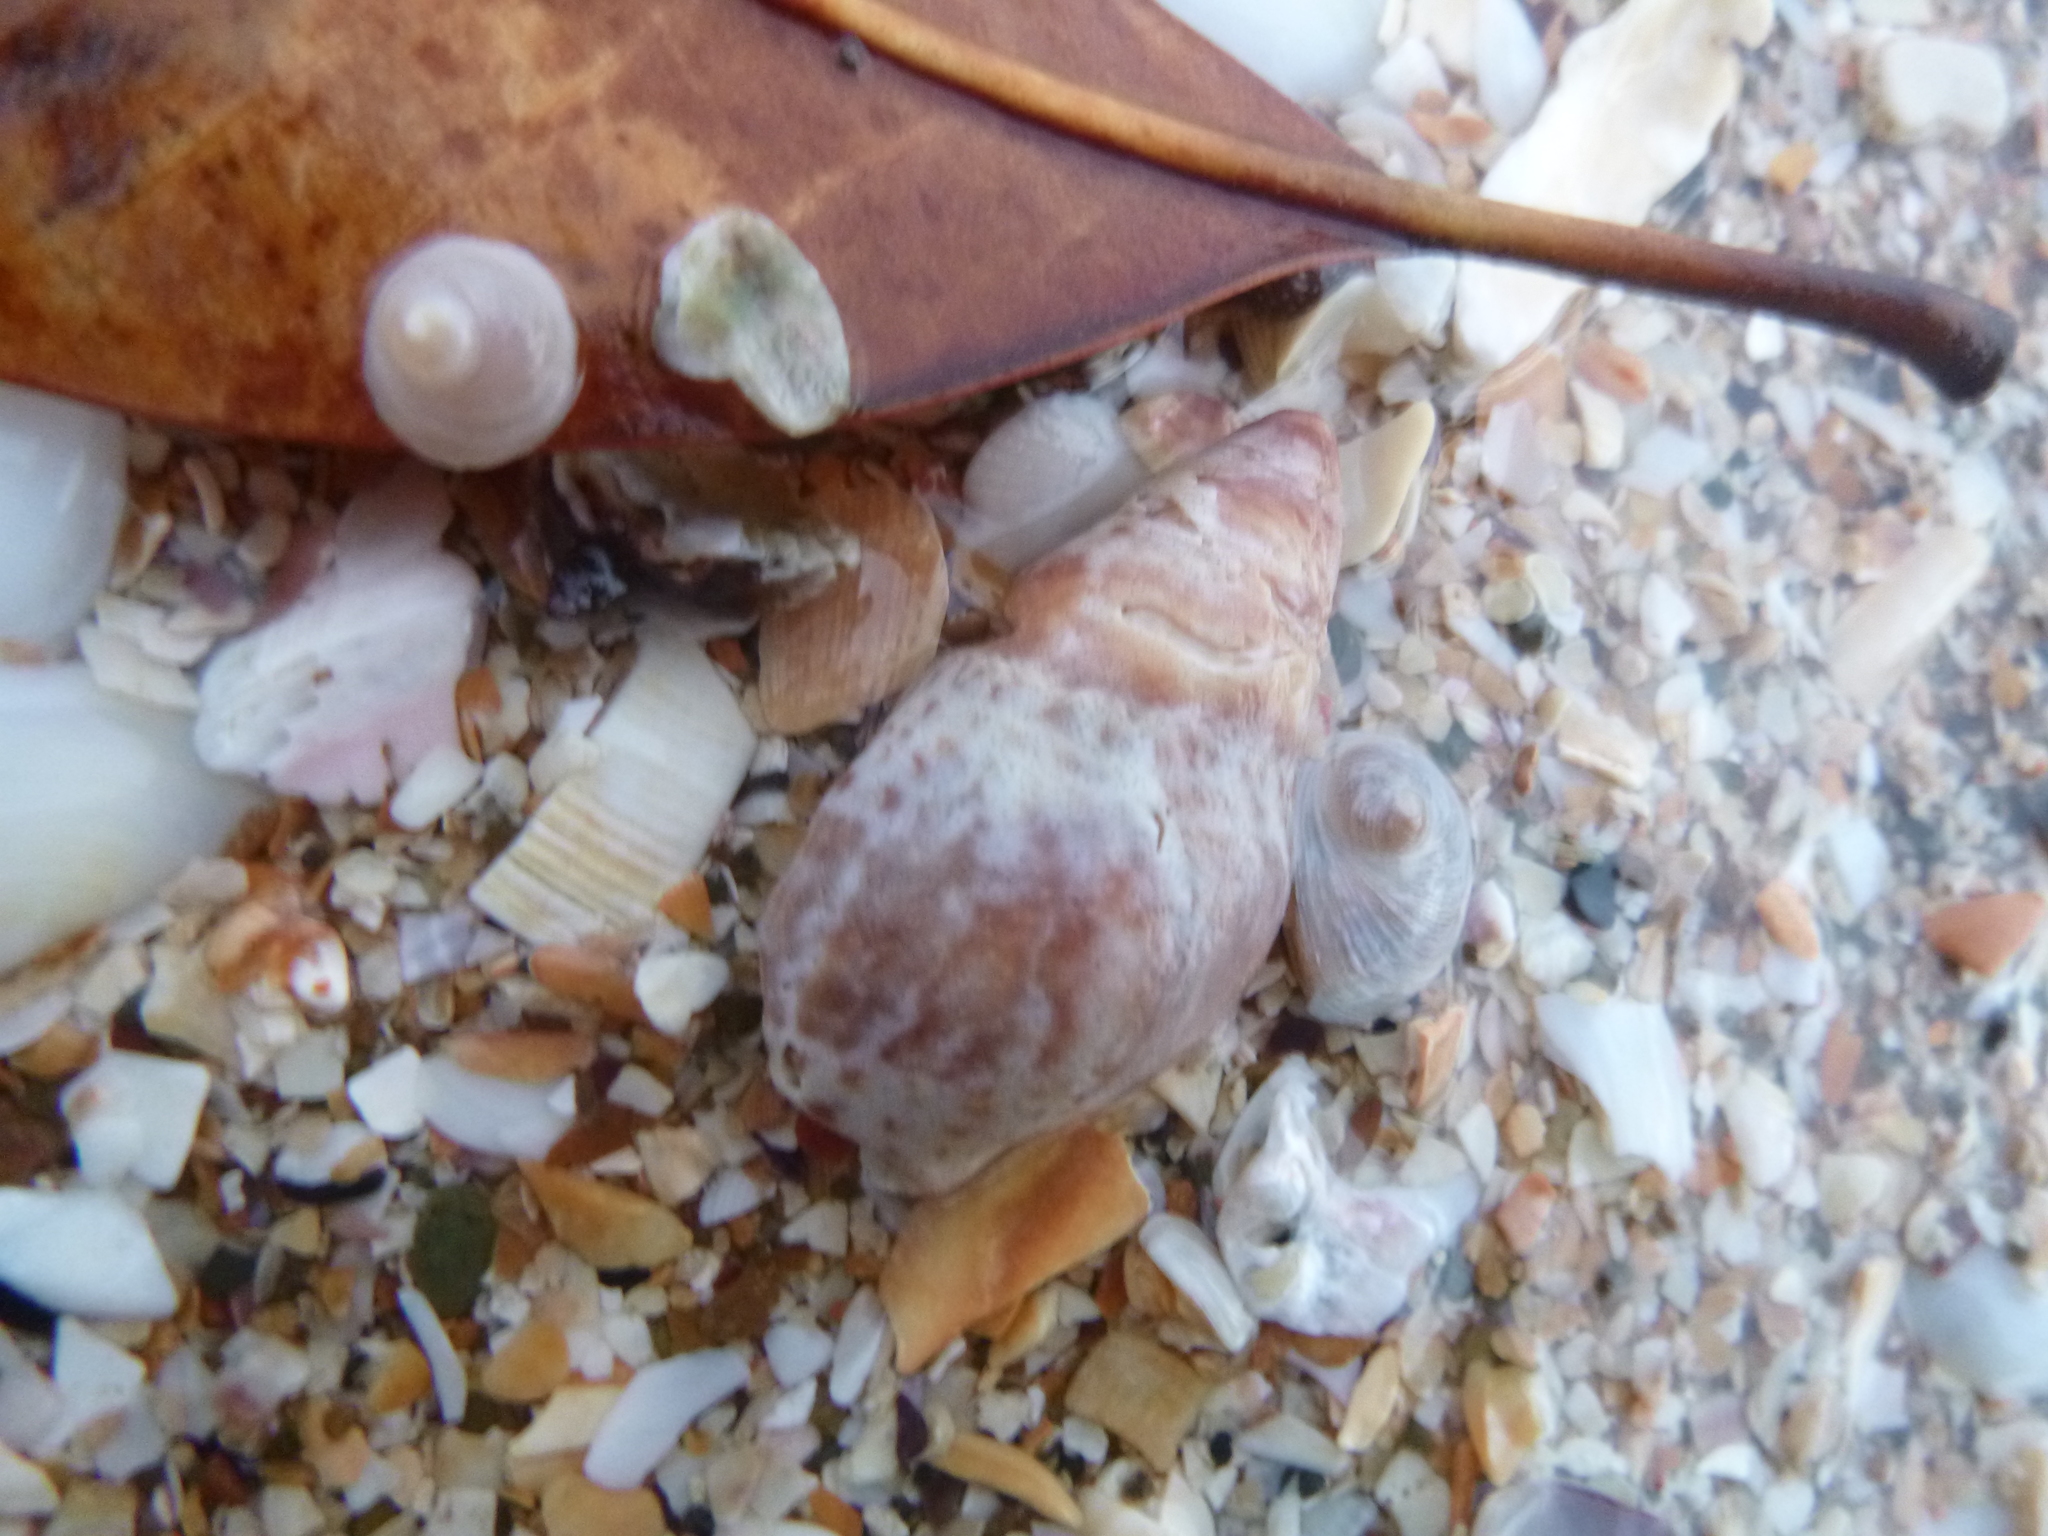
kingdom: Animalia
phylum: Mollusca
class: Gastropoda
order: Neogastropoda
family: Cominellidae
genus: Cominella
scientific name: Cominella maculosa
